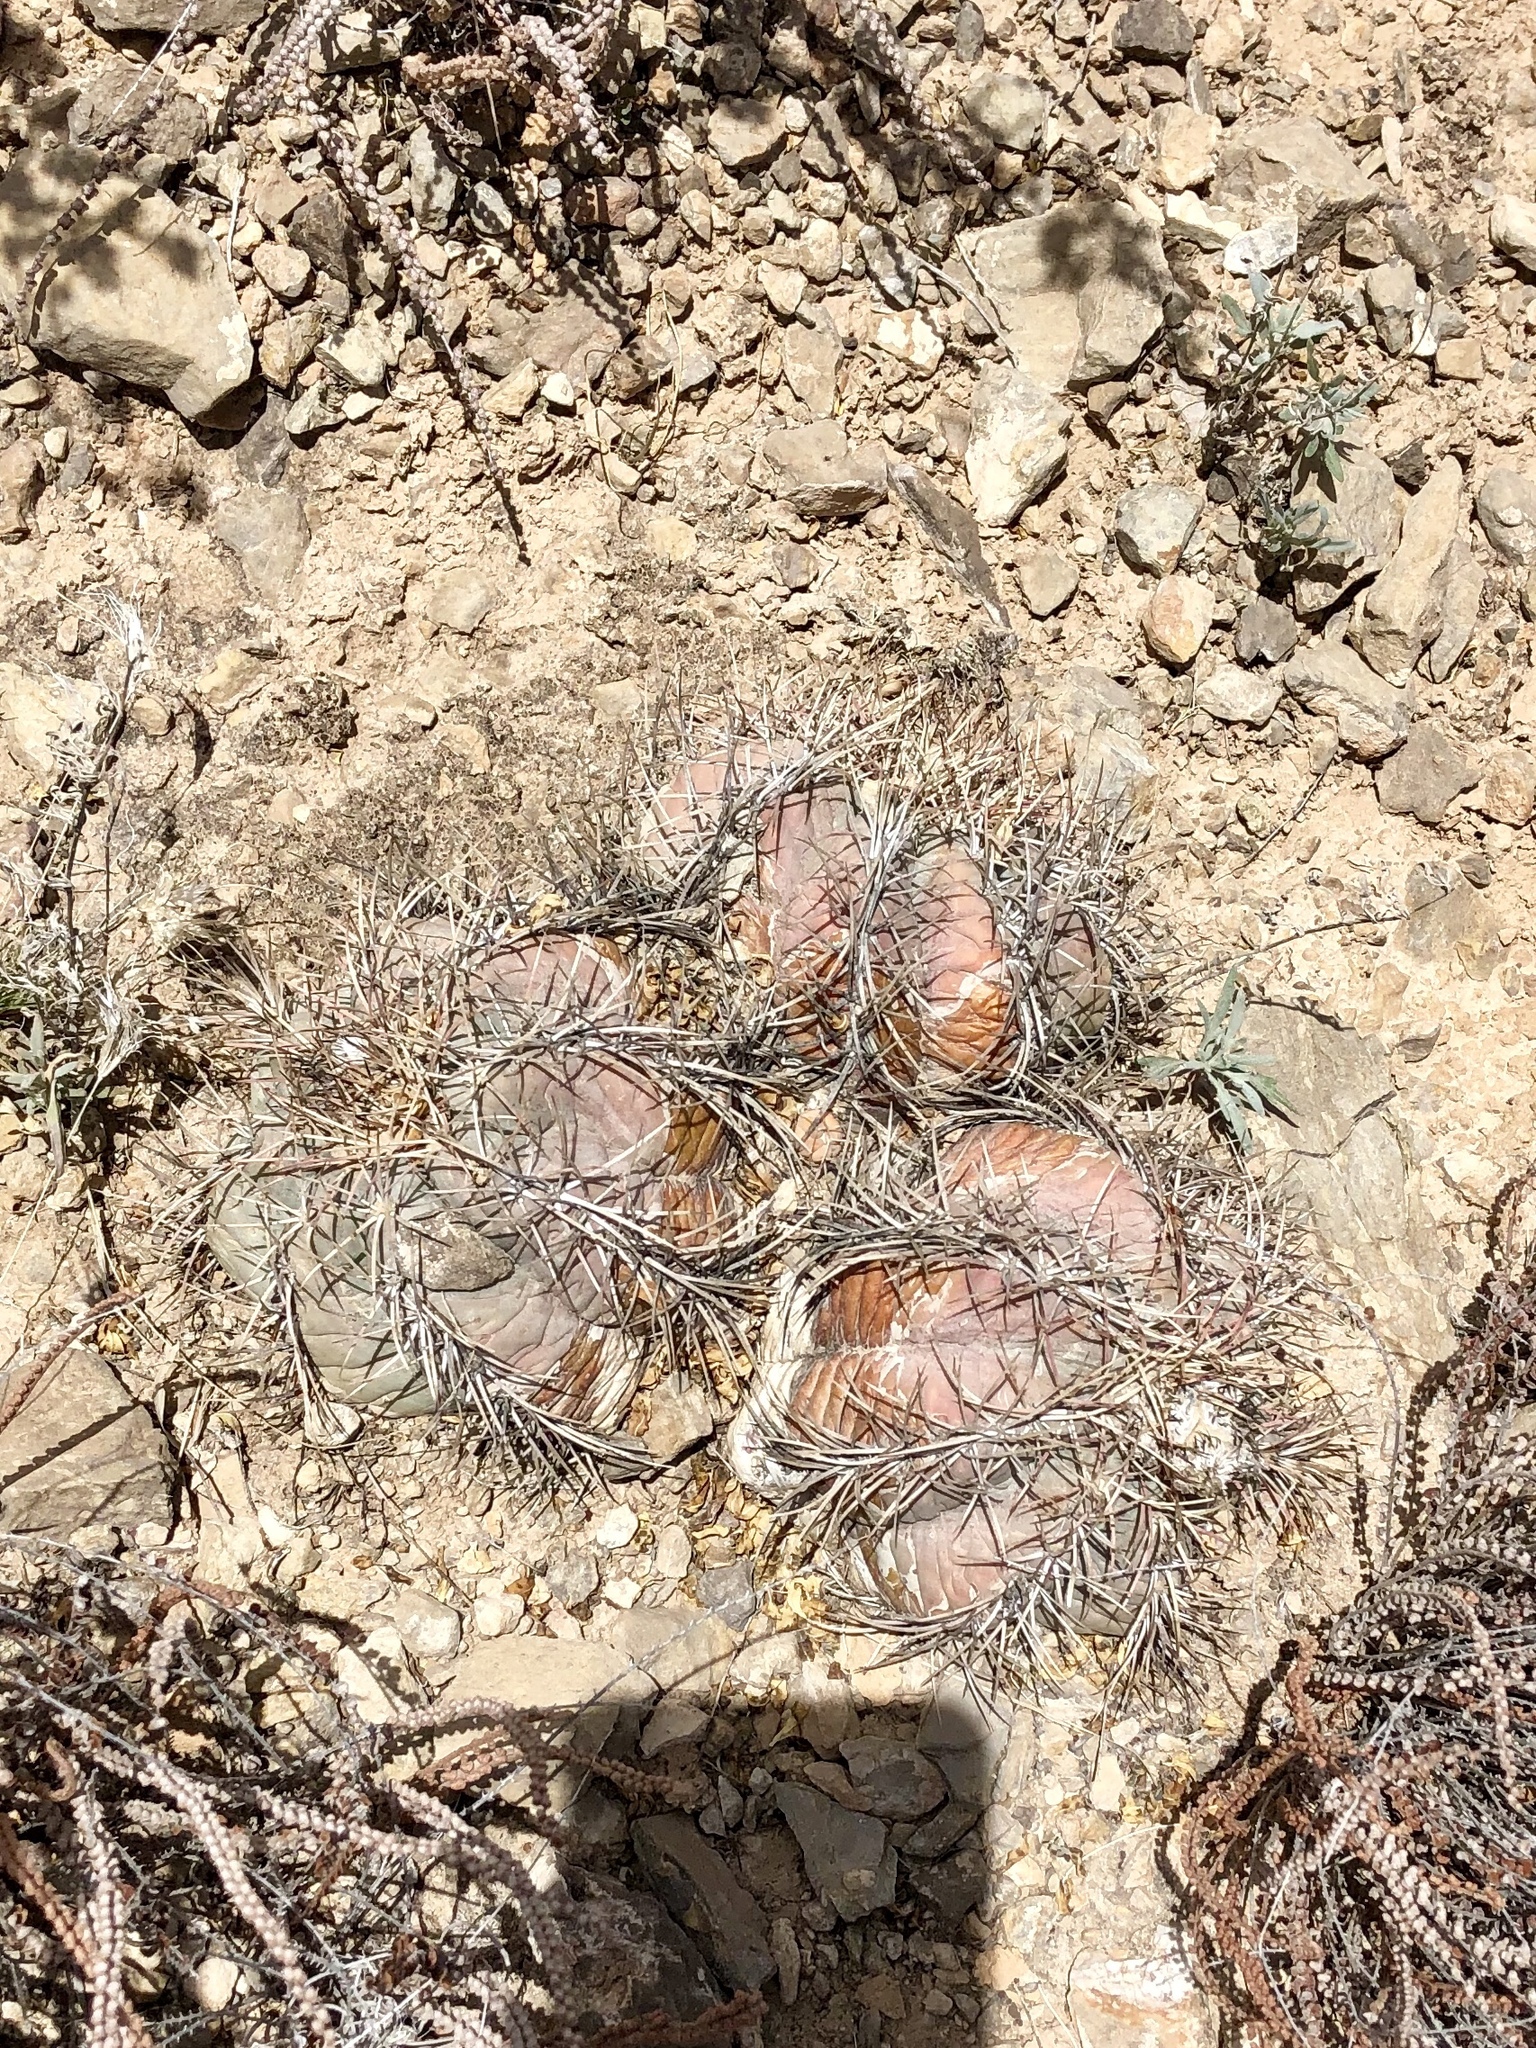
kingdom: Plantae
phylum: Tracheophyta
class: Magnoliopsida
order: Caryophyllales
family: Cactaceae
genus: Echinocactus
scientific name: Echinocactus horizonthalonius
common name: Devilshead
